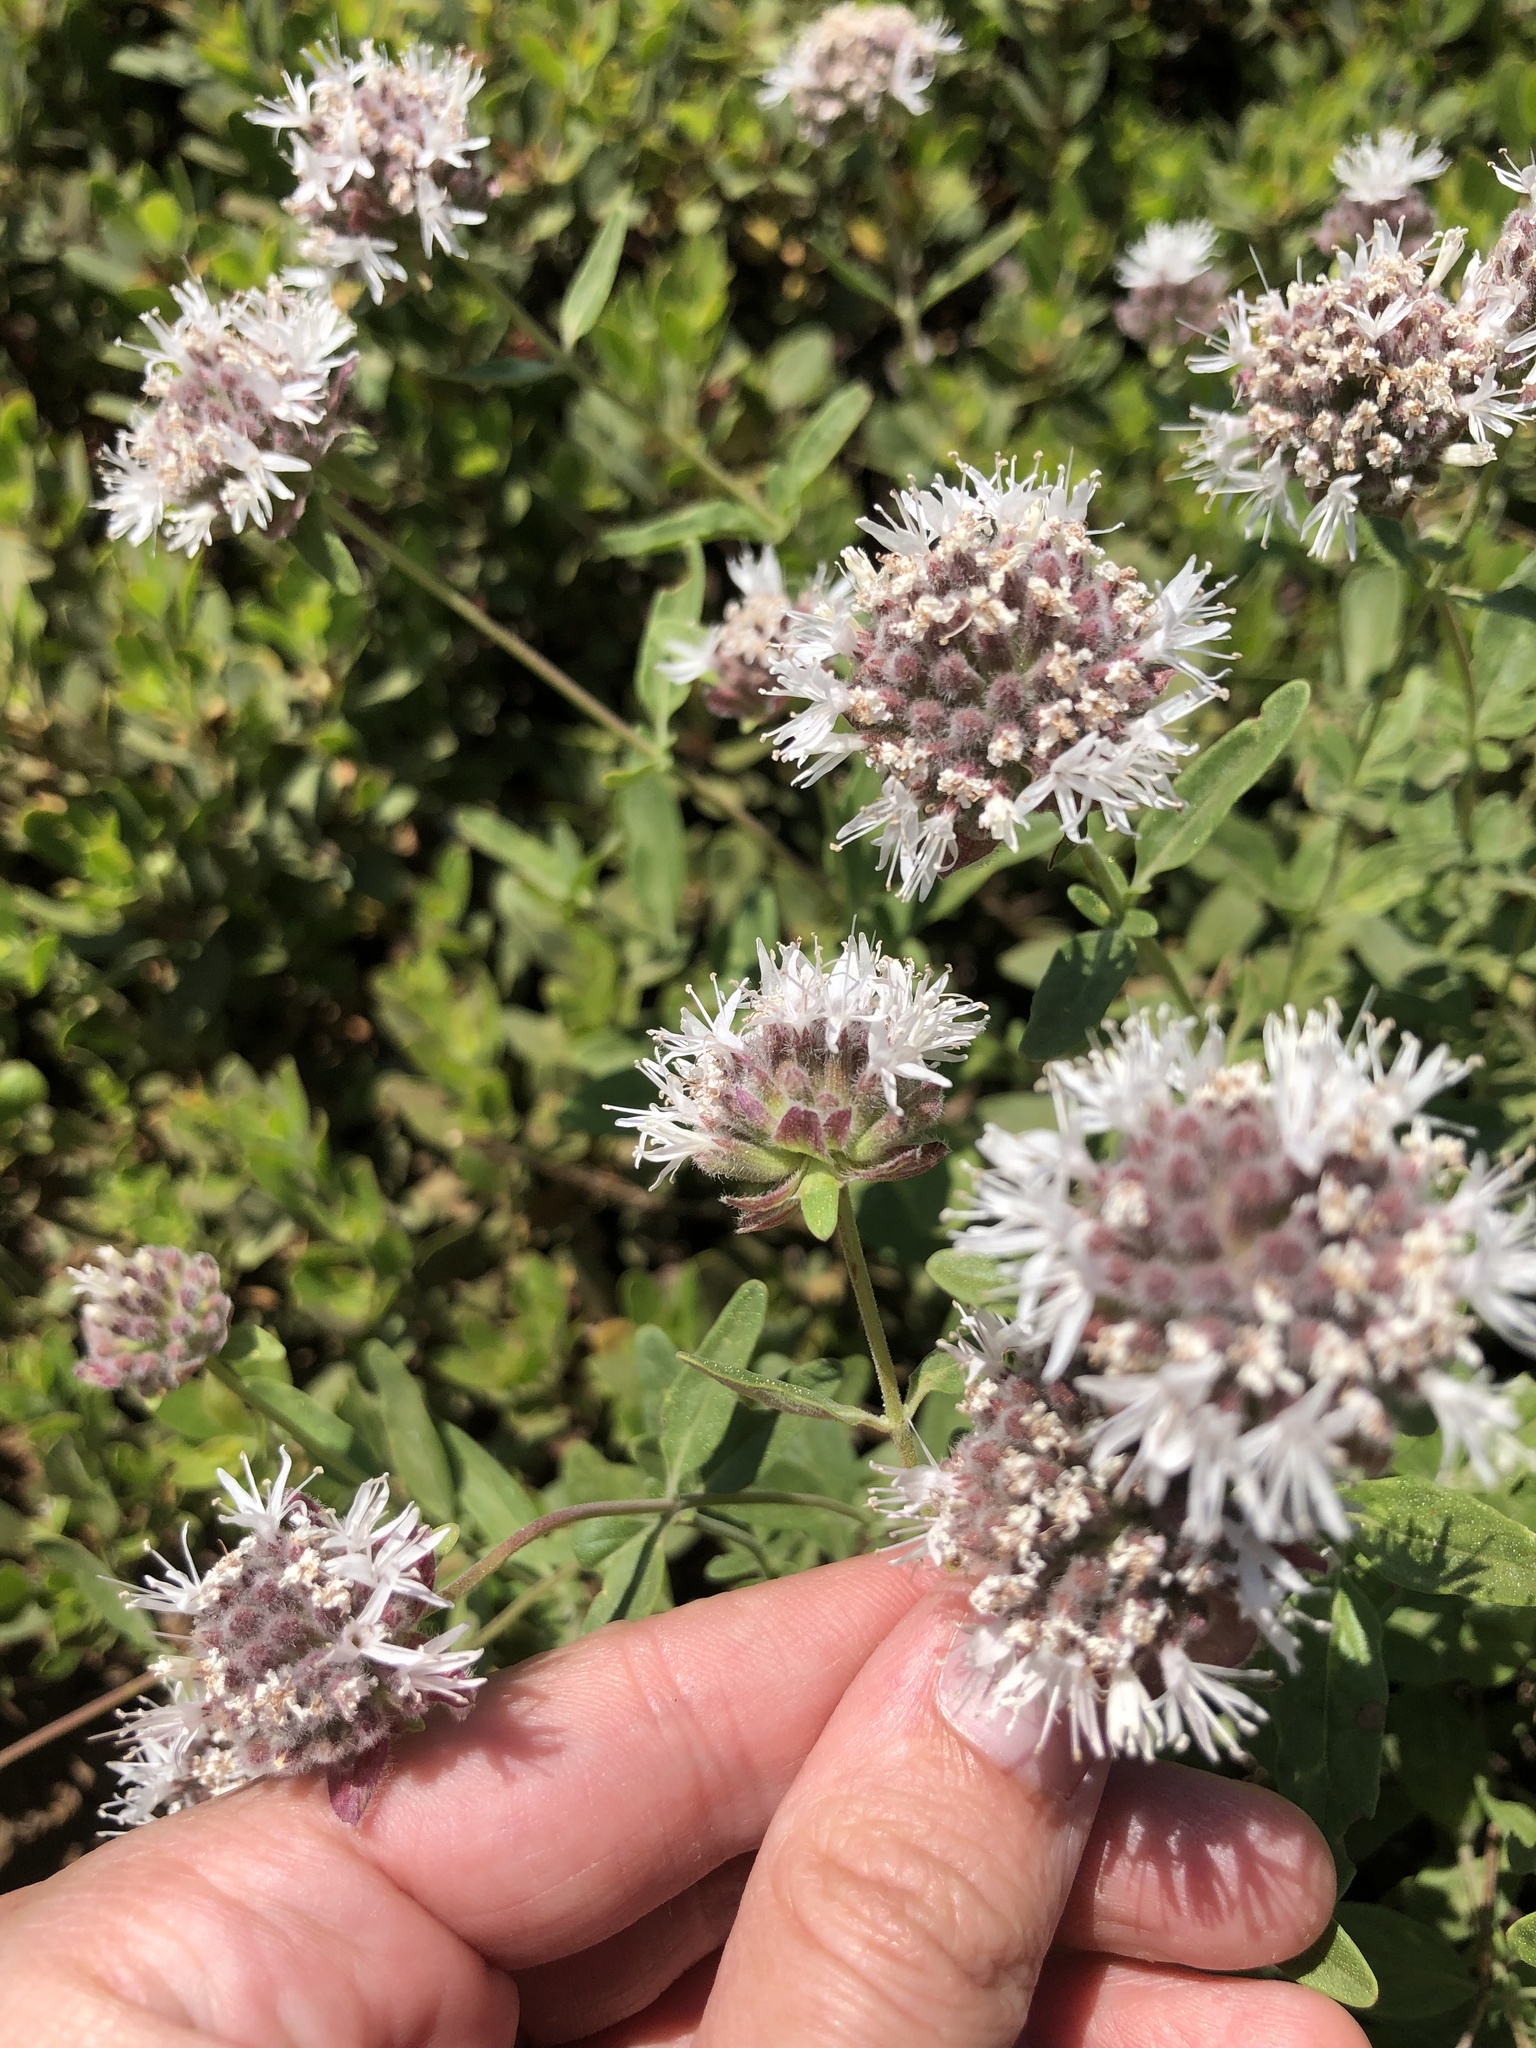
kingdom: Plantae
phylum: Tracheophyta
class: Magnoliopsida
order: Lamiales
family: Lamiaceae
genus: Monardella
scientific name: Monardella odoratissima
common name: Pacific monardella
